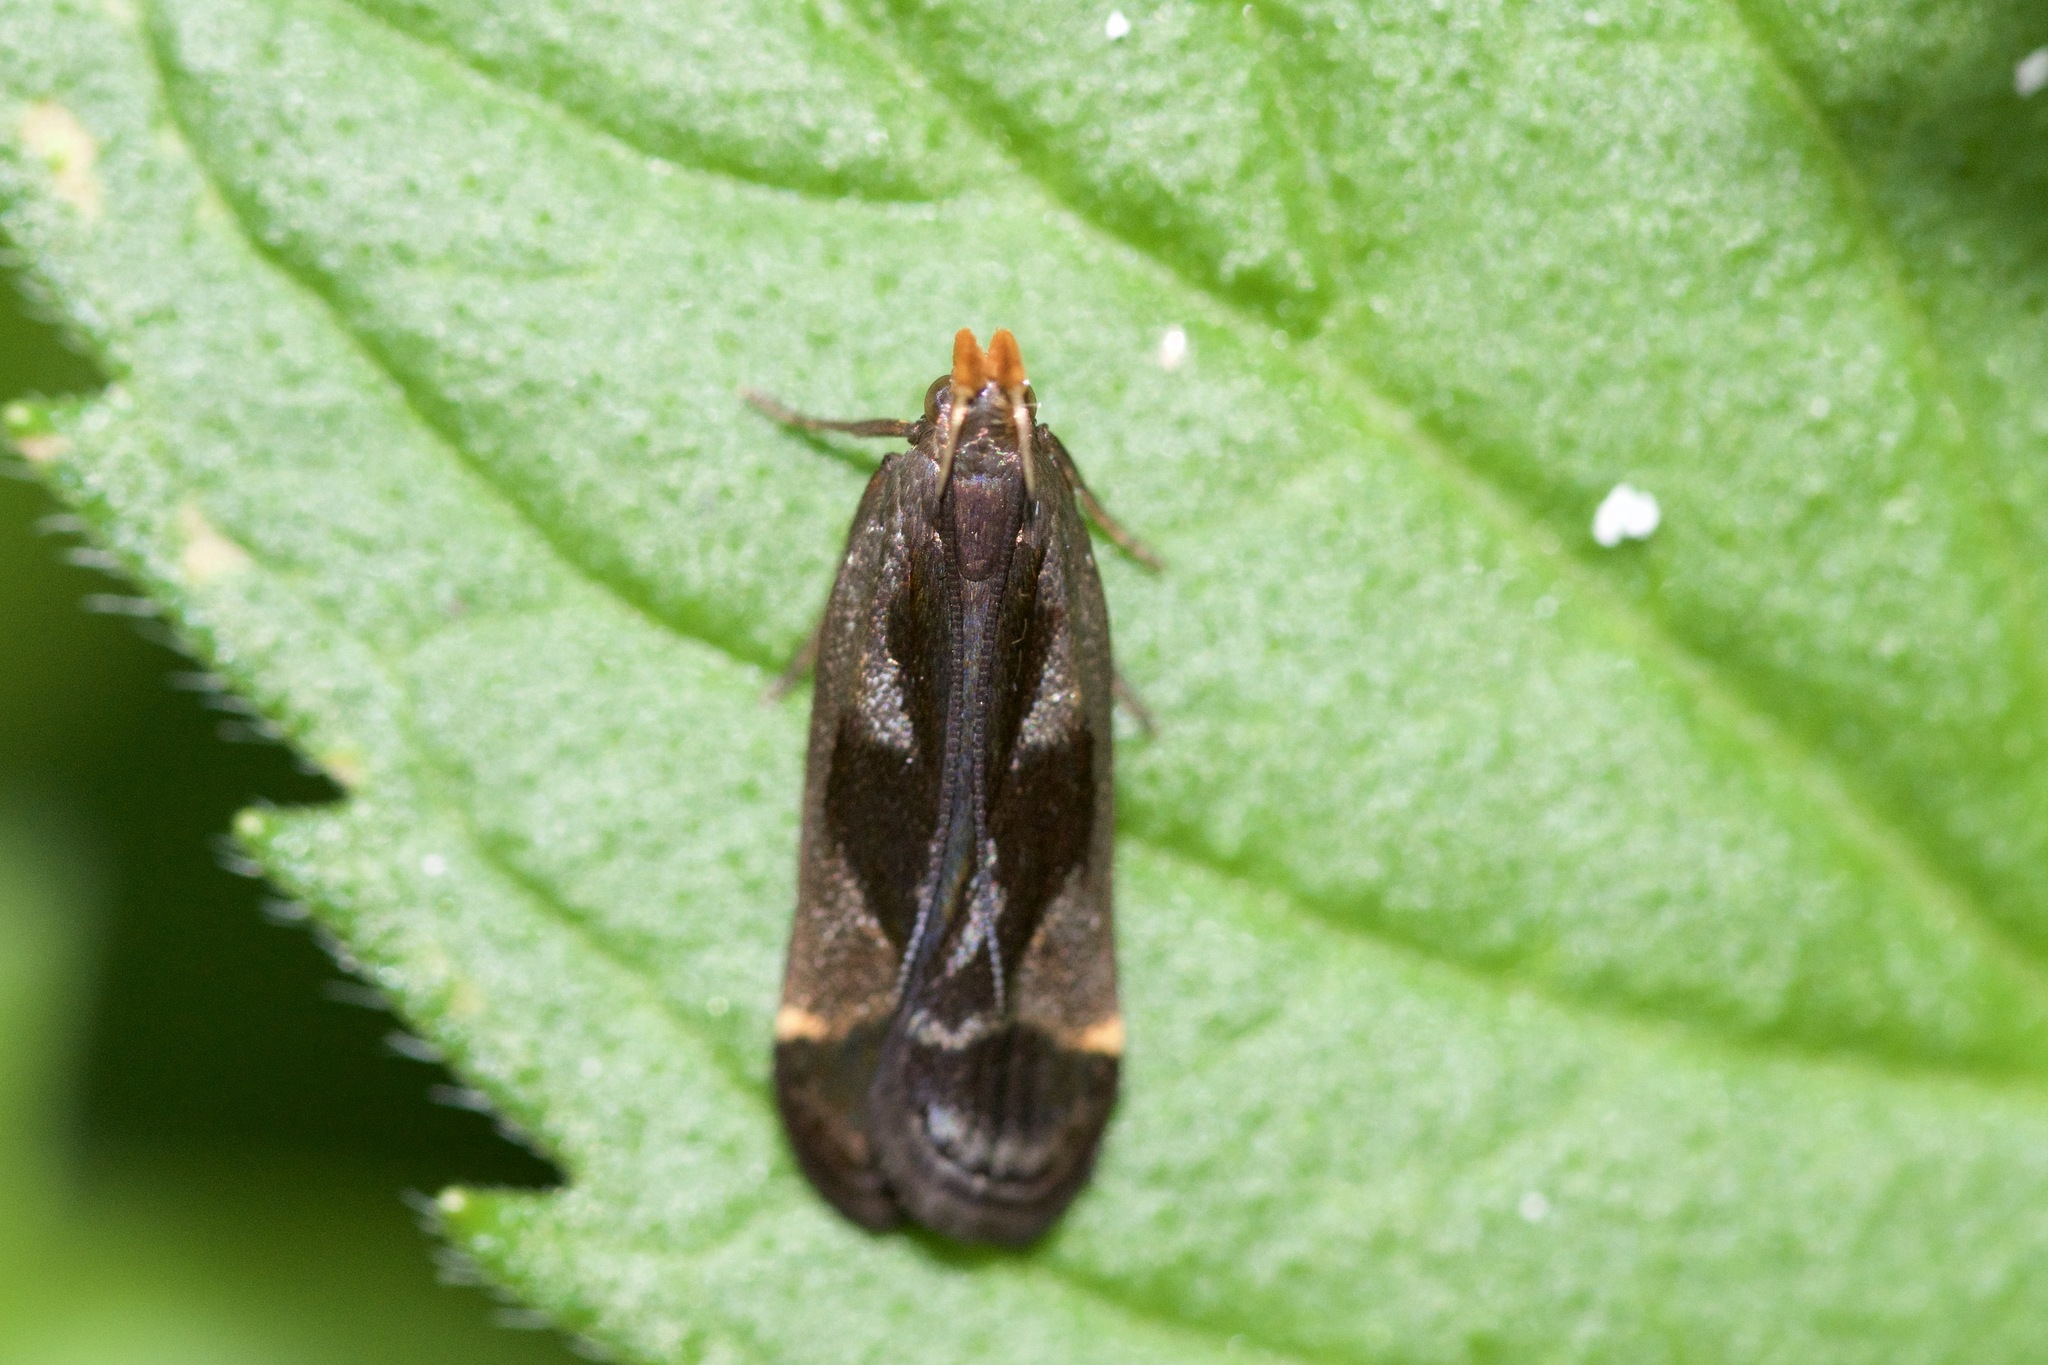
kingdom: Animalia
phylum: Arthropoda
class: Insecta
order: Lepidoptera
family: Gelechiidae
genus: Dichomeris
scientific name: Dichomeris ochripalpella
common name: Shining dichomeris moth
